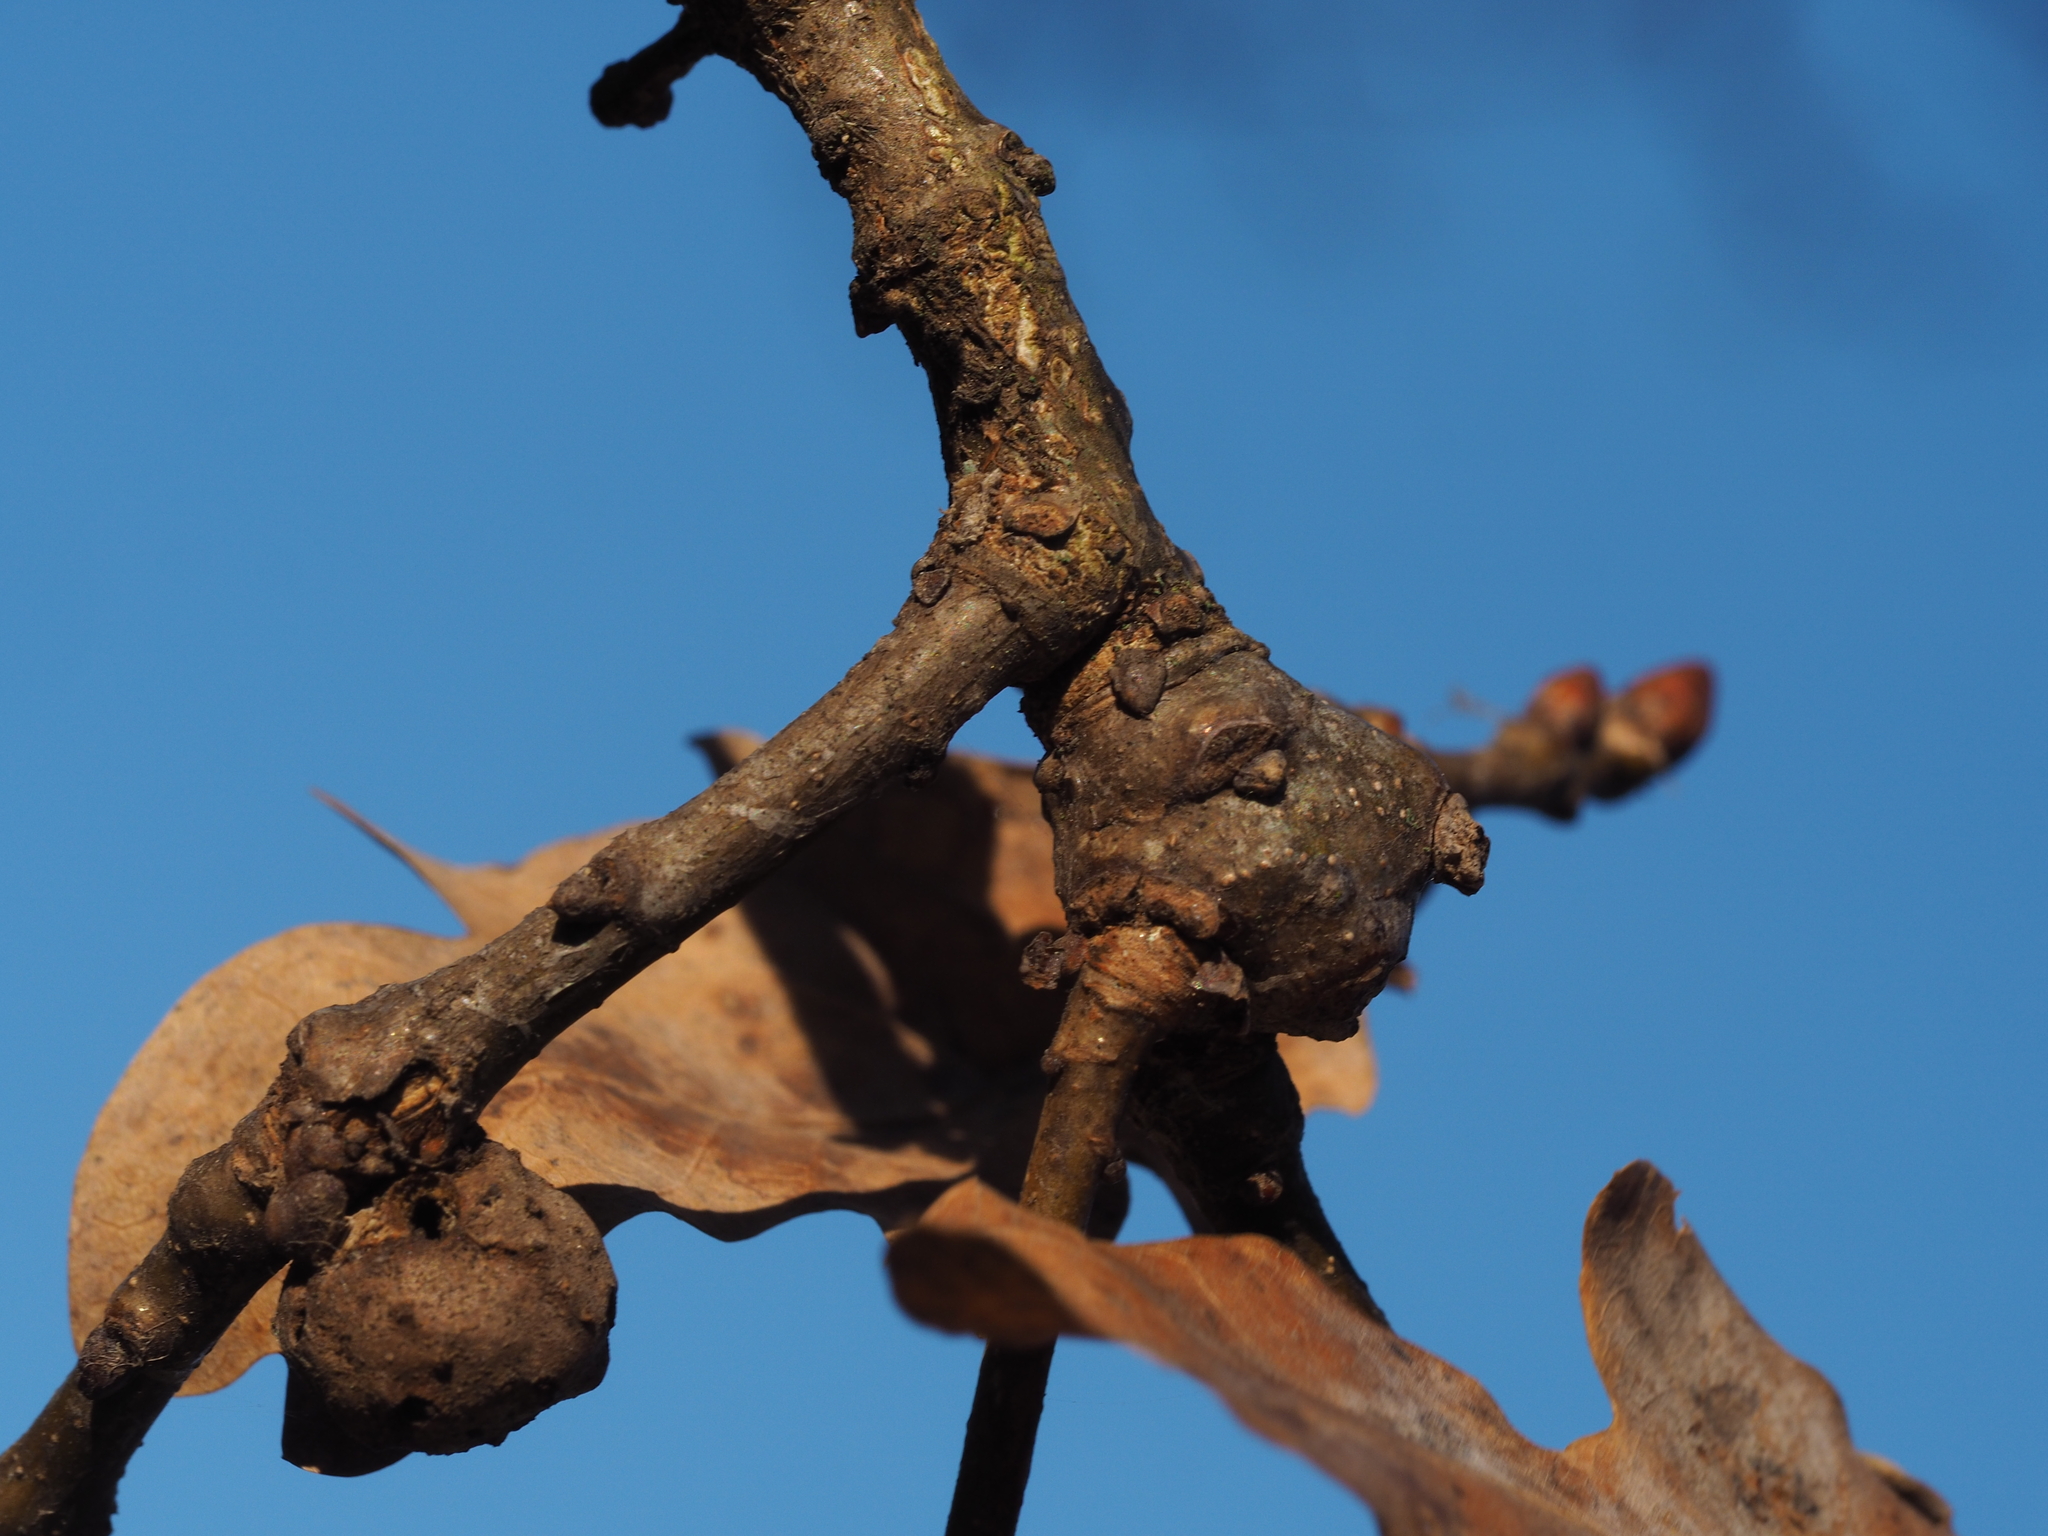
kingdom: Animalia
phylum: Arthropoda
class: Insecta
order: Hymenoptera
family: Cynipidae
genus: Andricus
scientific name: Andricus inflator
